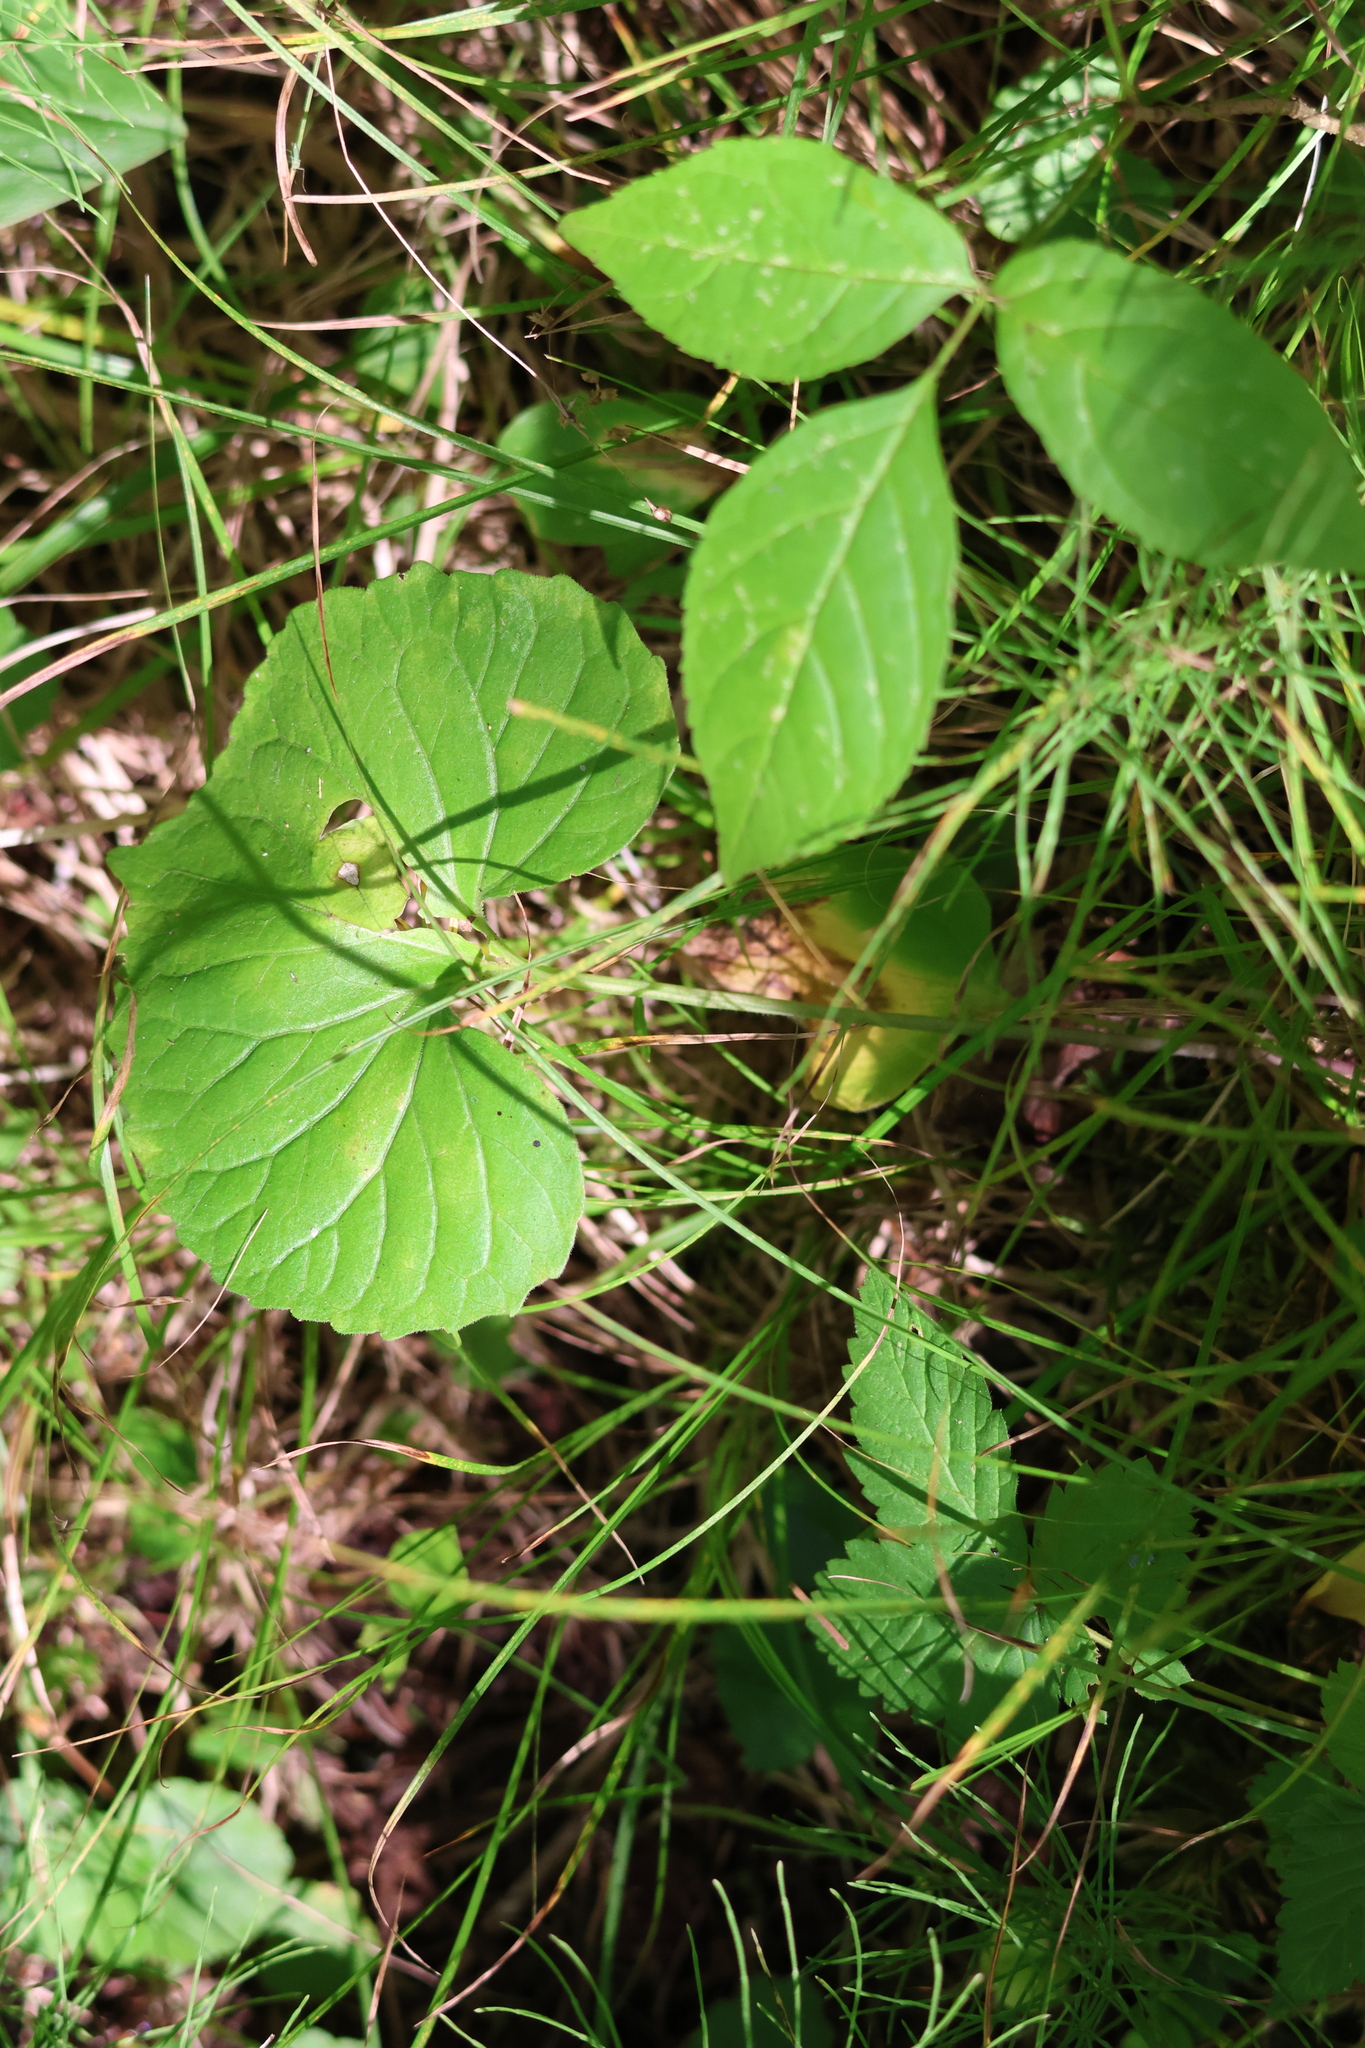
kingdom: Plantae
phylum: Tracheophyta
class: Magnoliopsida
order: Malpighiales
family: Violaceae
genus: Viola
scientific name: Viola renifolia
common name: Kidney-leaf violet
